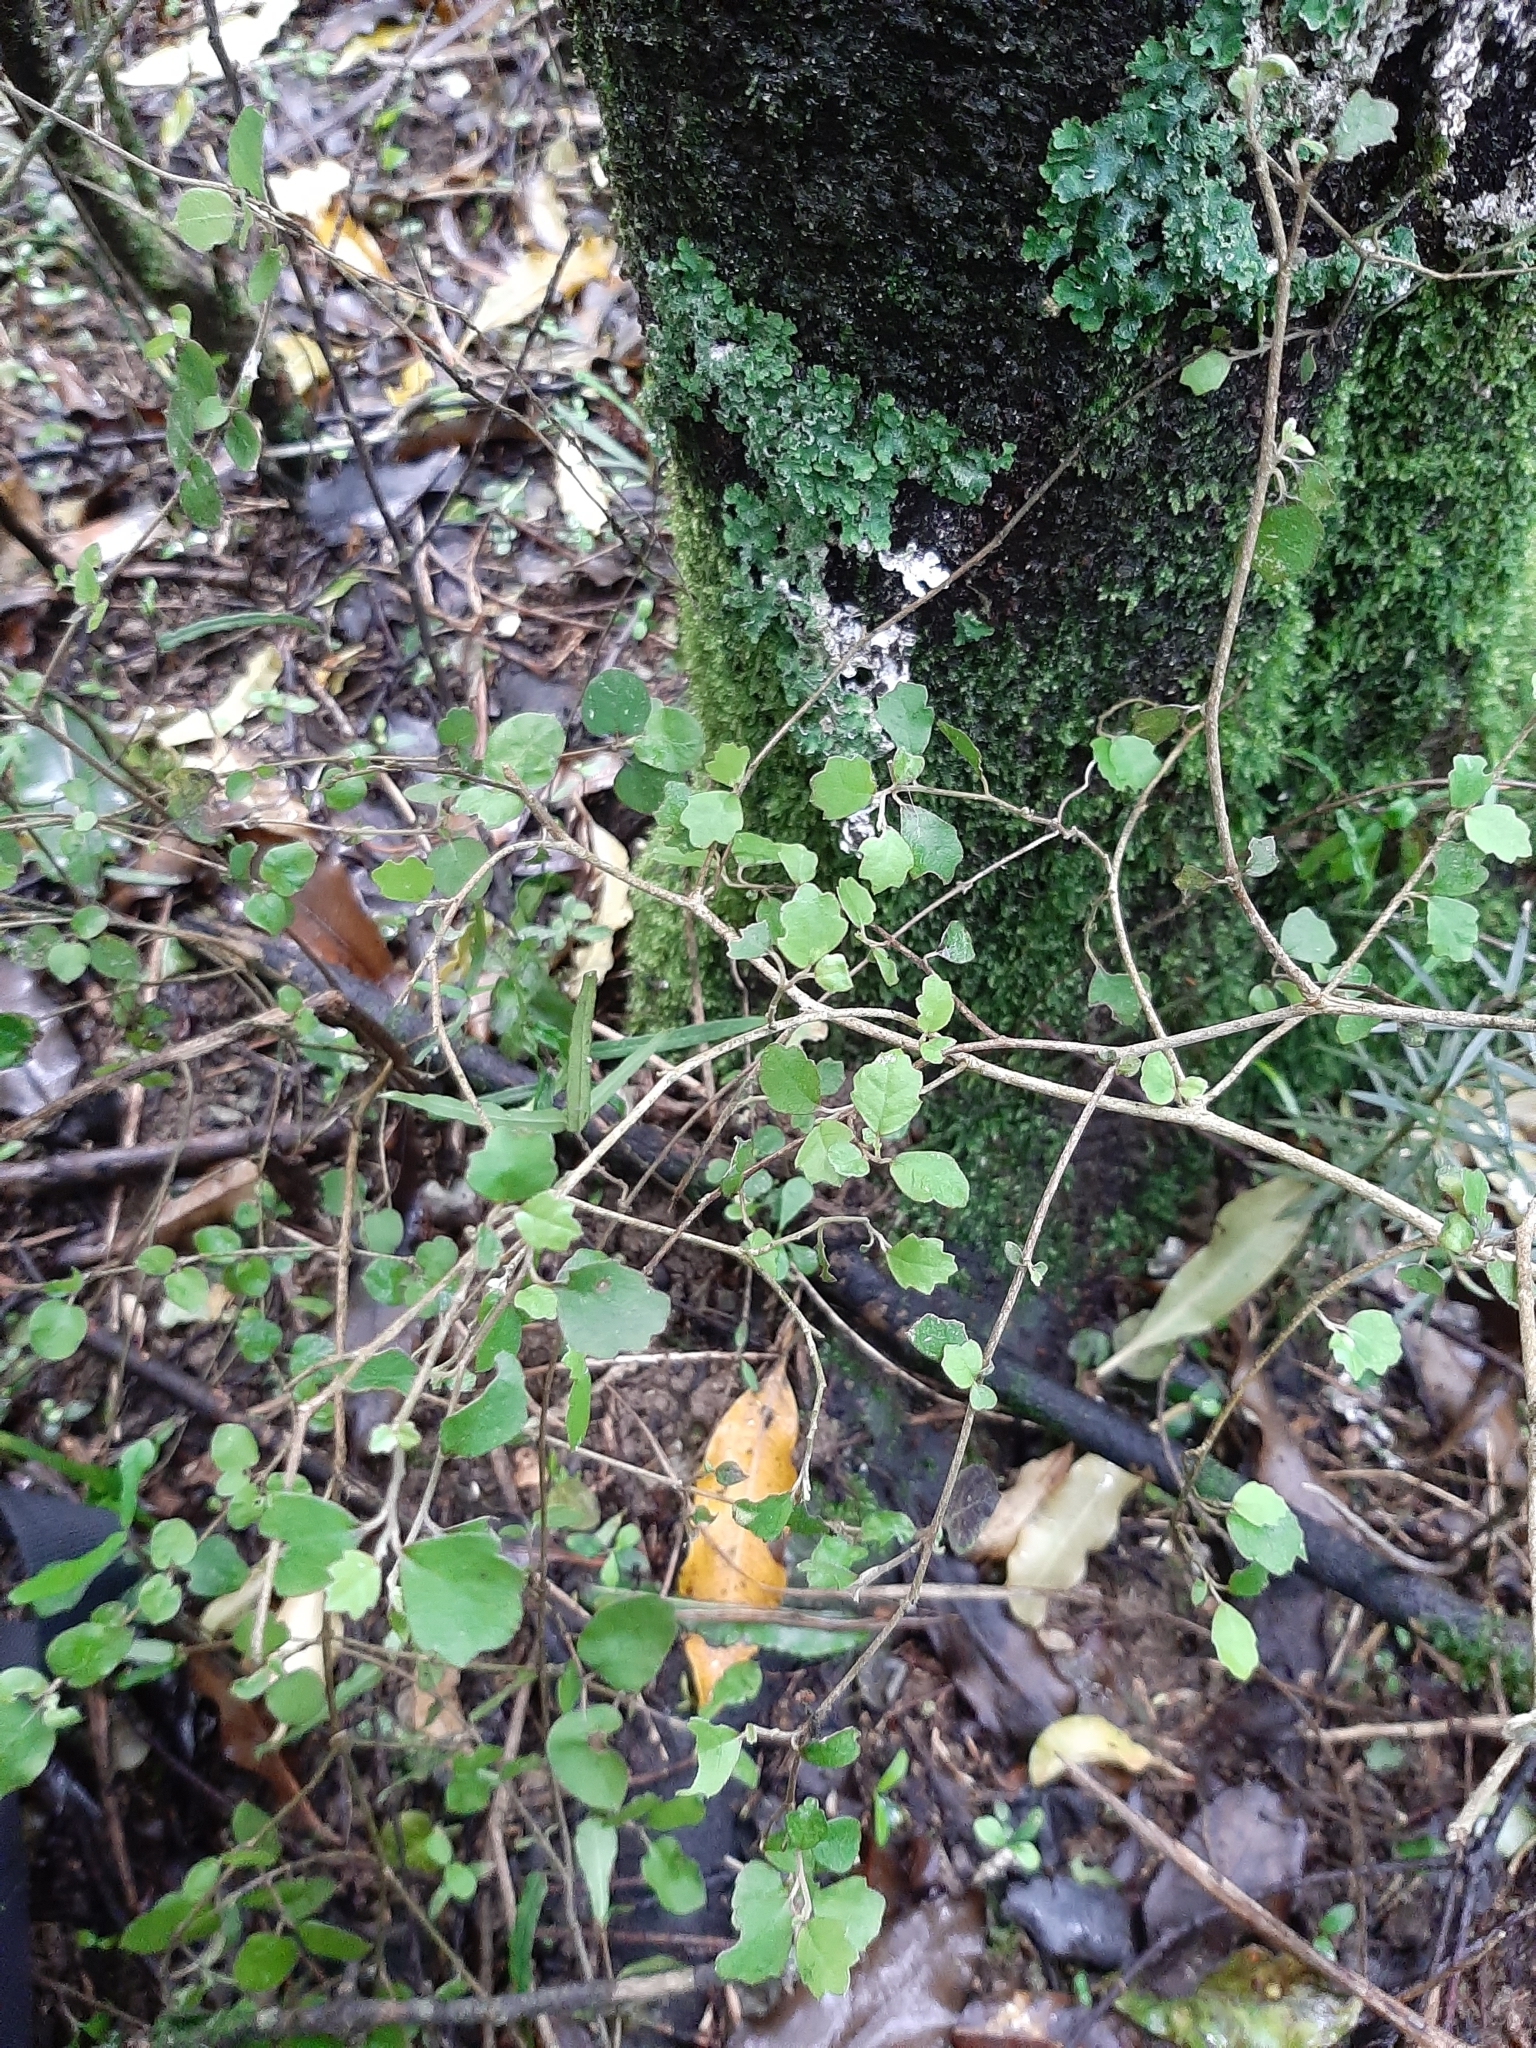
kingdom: Plantae
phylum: Tracheophyta
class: Magnoliopsida
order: Apiales
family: Pennantiaceae
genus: Pennantia
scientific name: Pennantia corymbosa
